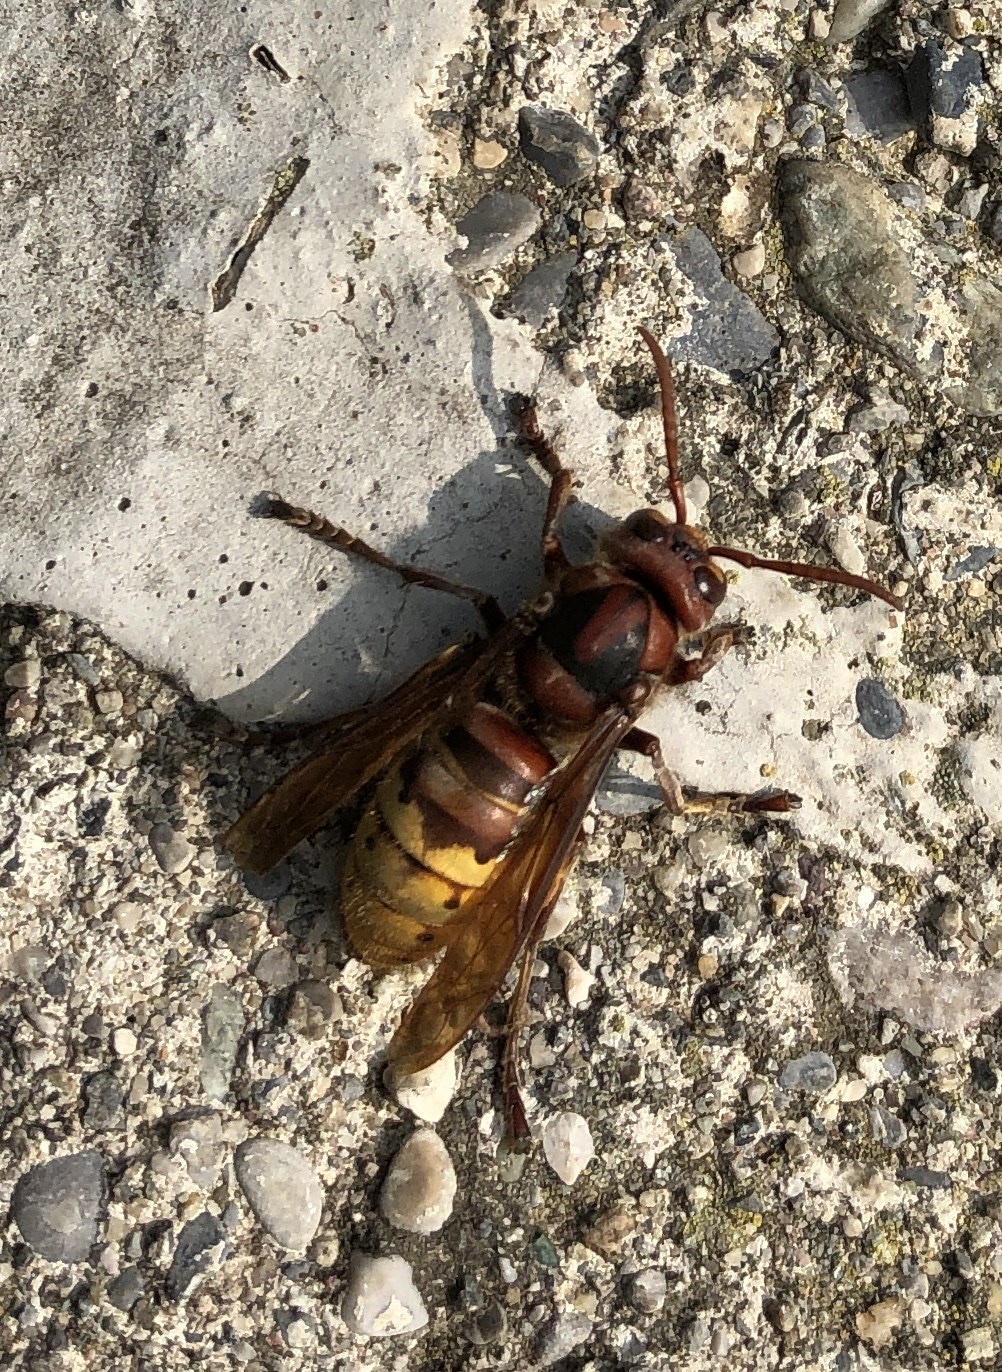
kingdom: Animalia
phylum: Arthropoda
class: Insecta
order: Hymenoptera
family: Vespidae
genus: Vespa
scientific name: Vespa crabro
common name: Hornet
